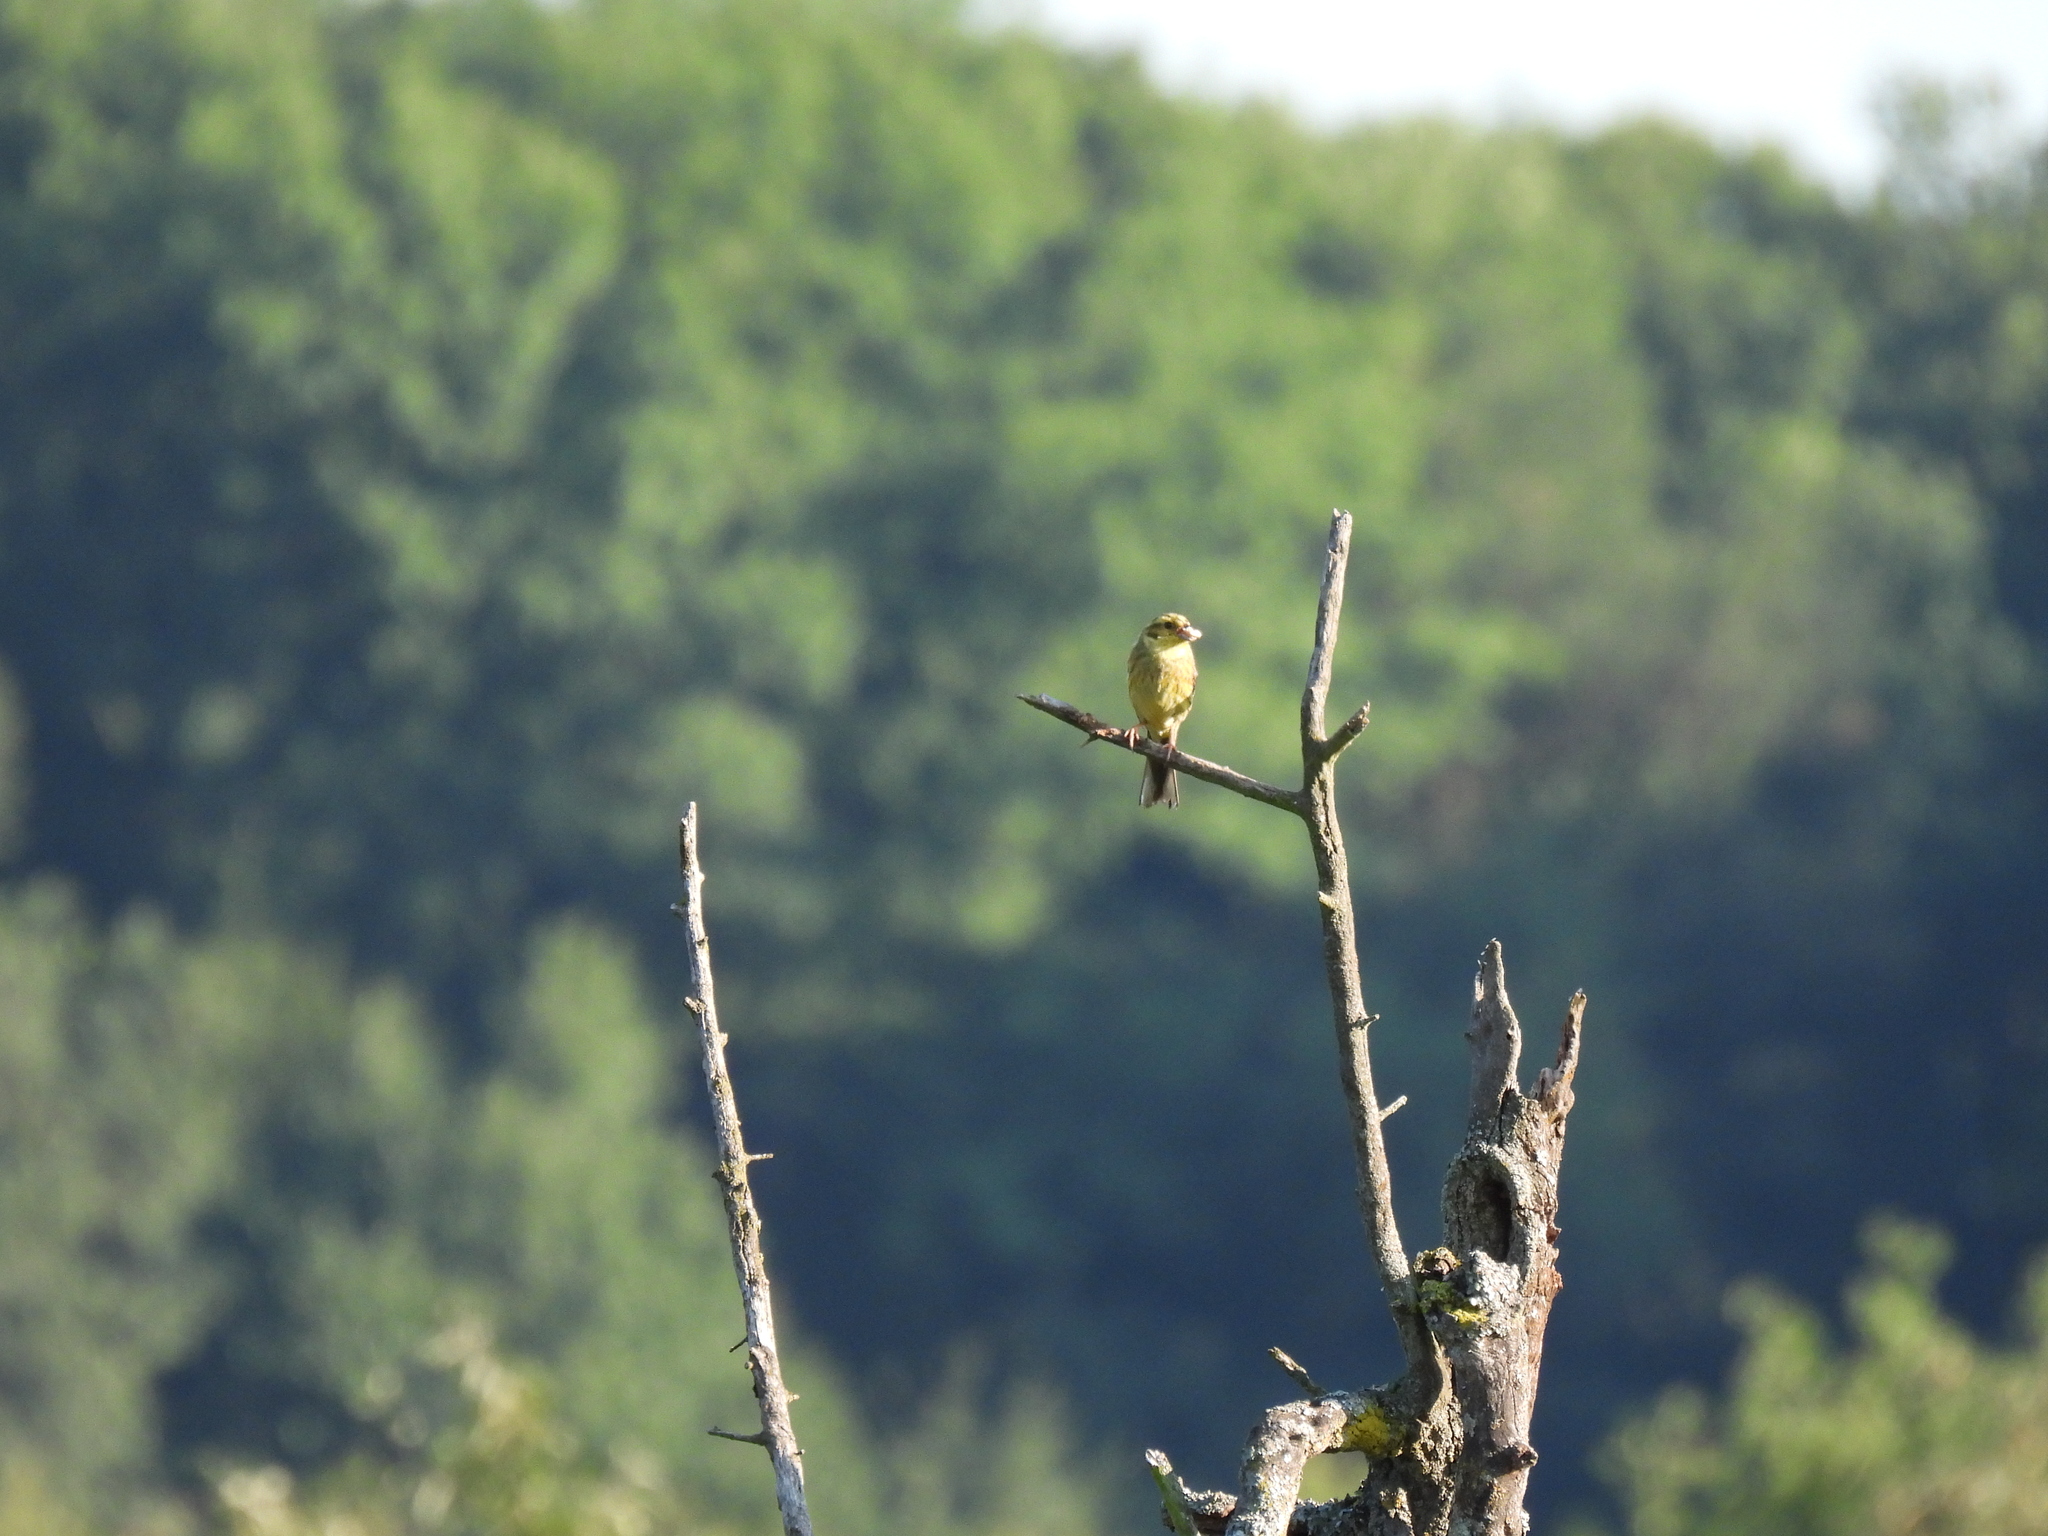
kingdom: Animalia
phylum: Chordata
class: Aves
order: Passeriformes
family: Emberizidae
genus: Emberiza
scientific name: Emberiza citrinella
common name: Yellowhammer
